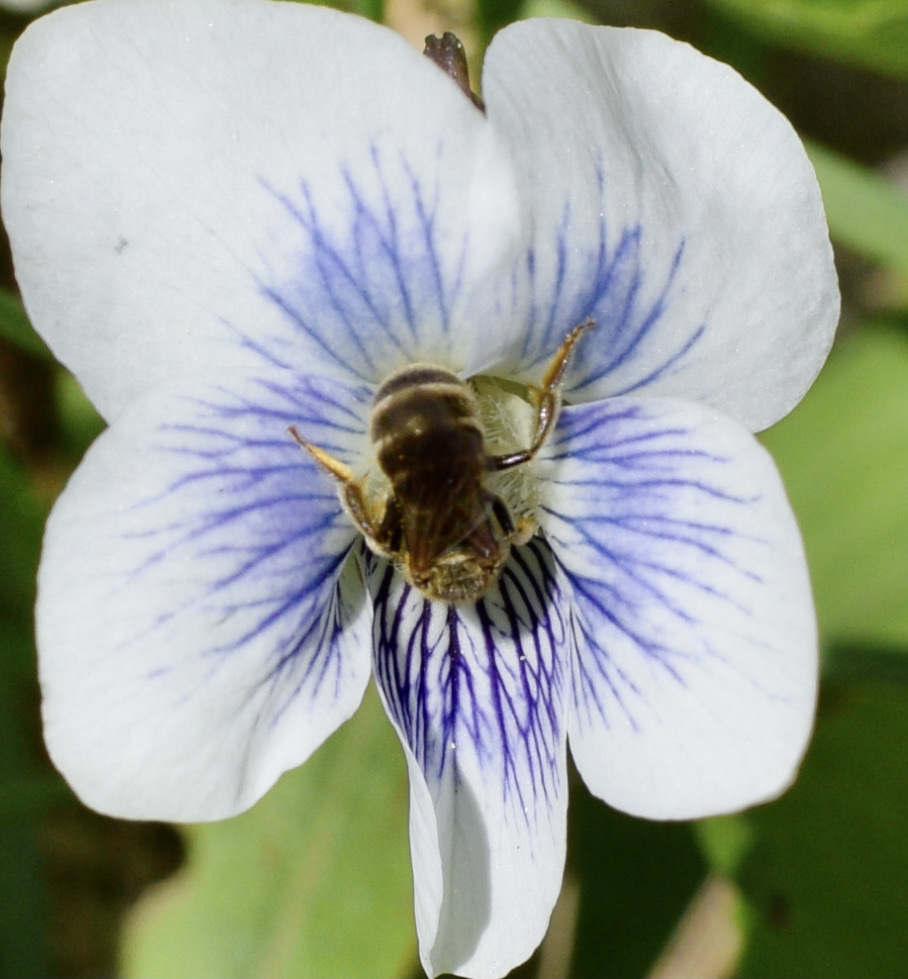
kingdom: Animalia
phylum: Arthropoda
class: Insecta
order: Hymenoptera
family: Halictidae
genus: Halictus
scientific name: Halictus confusus
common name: Southern bronze furrow bee
